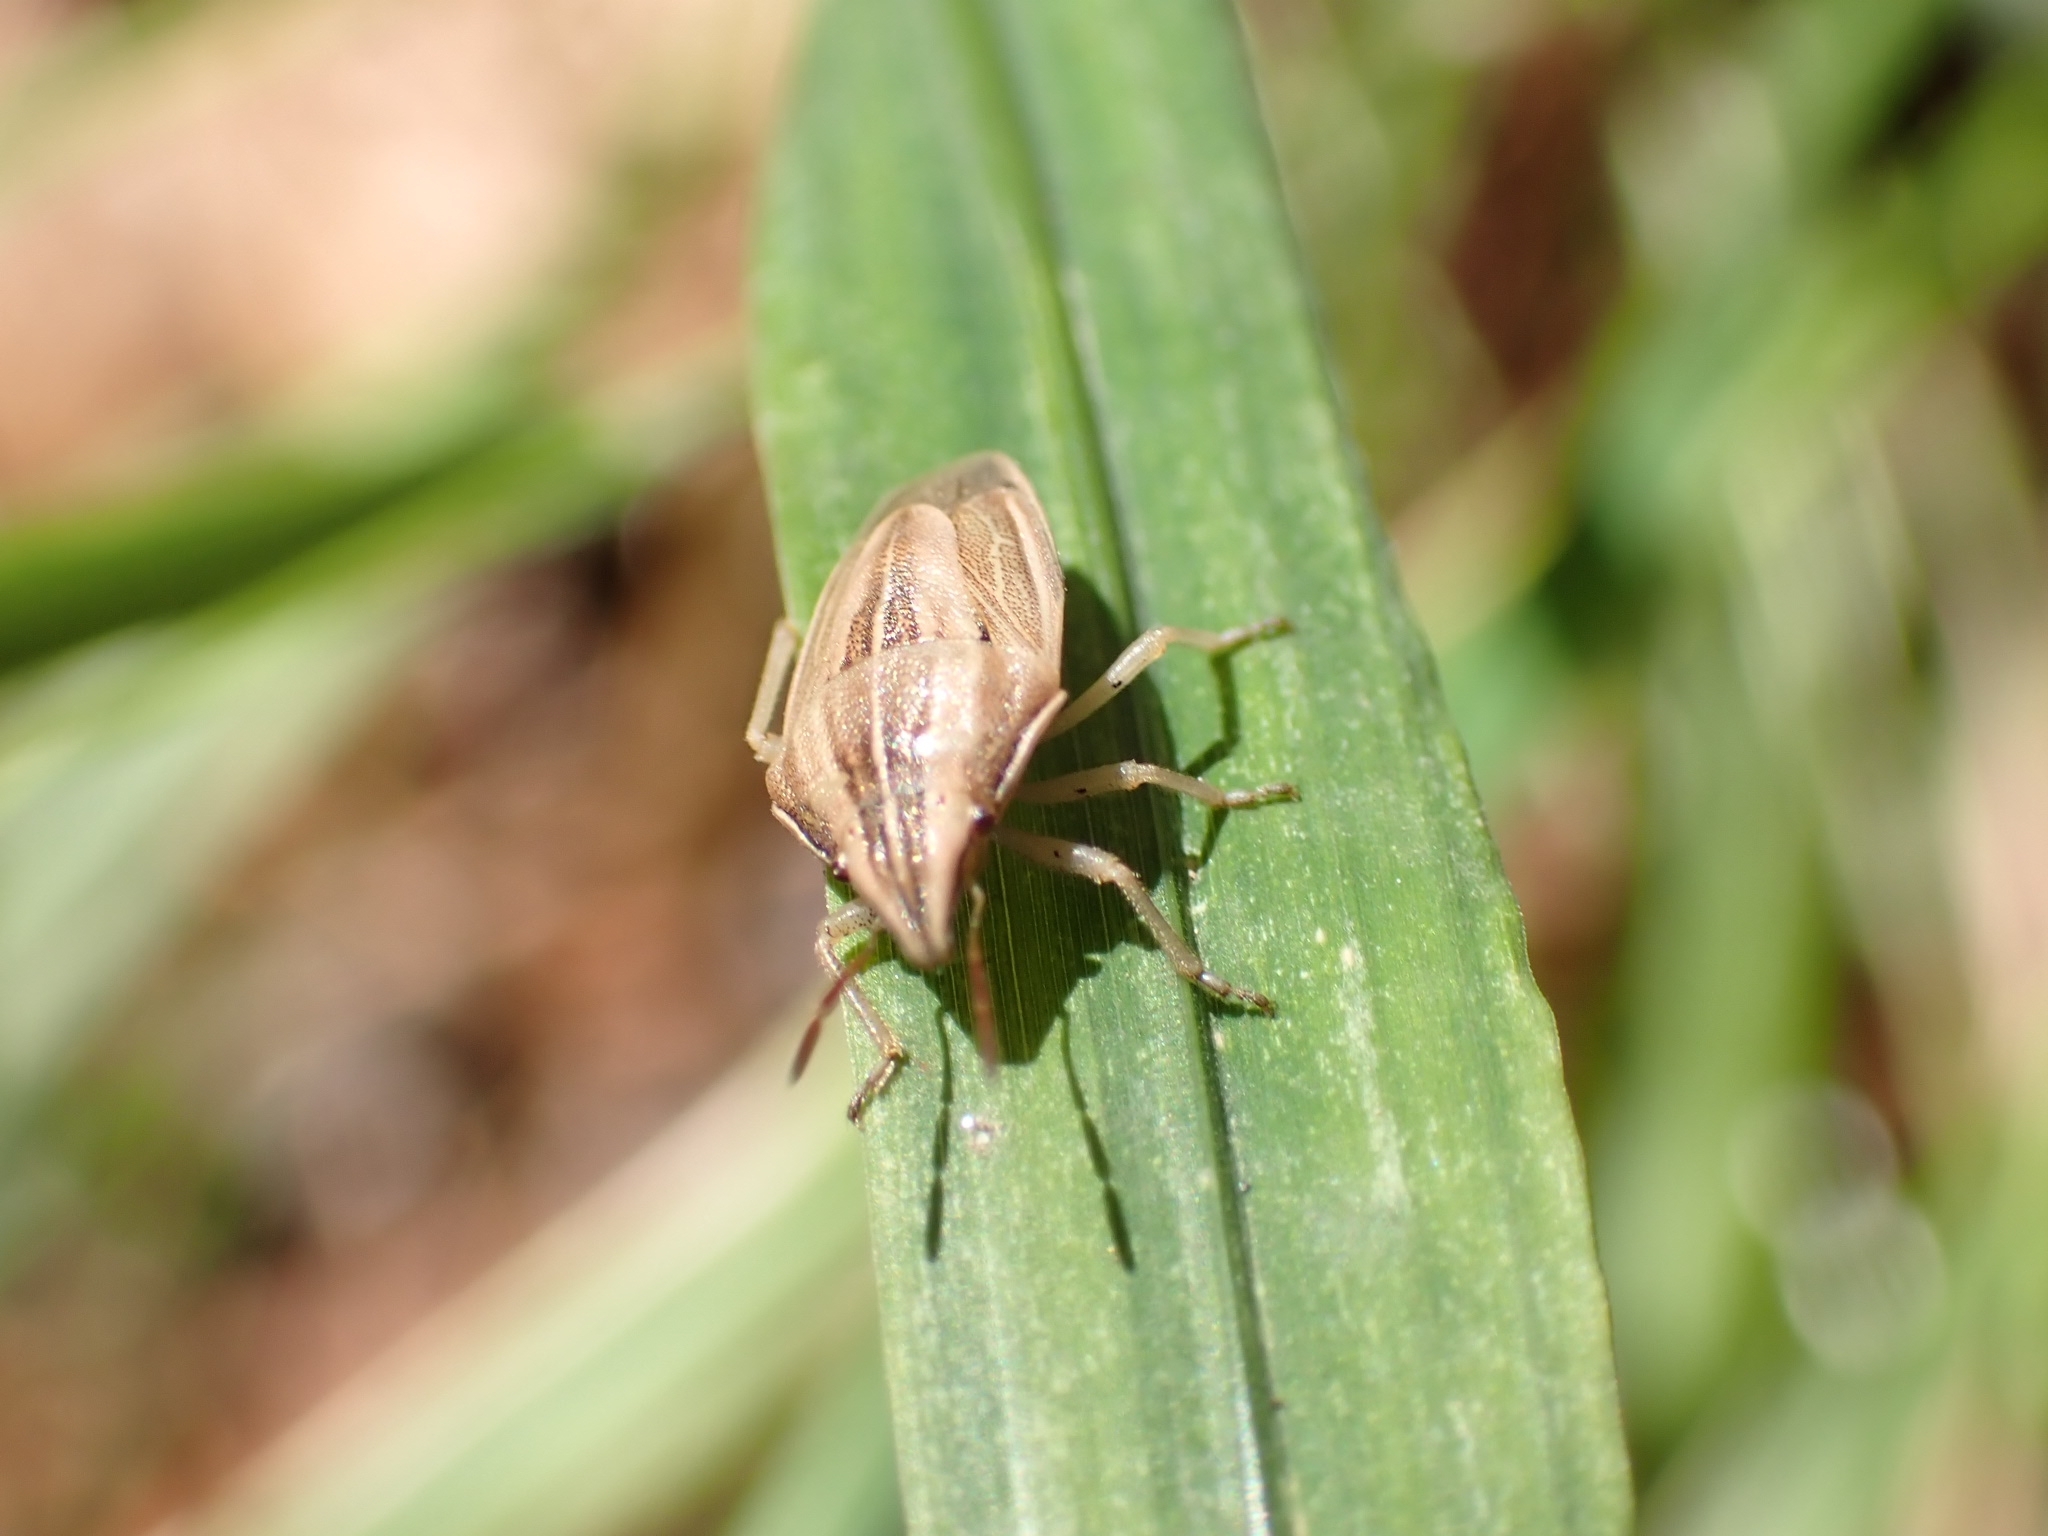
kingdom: Animalia
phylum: Arthropoda
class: Insecta
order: Hemiptera
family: Pentatomidae
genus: Aelia
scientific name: Aelia acuminata
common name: Bishop's mitre
